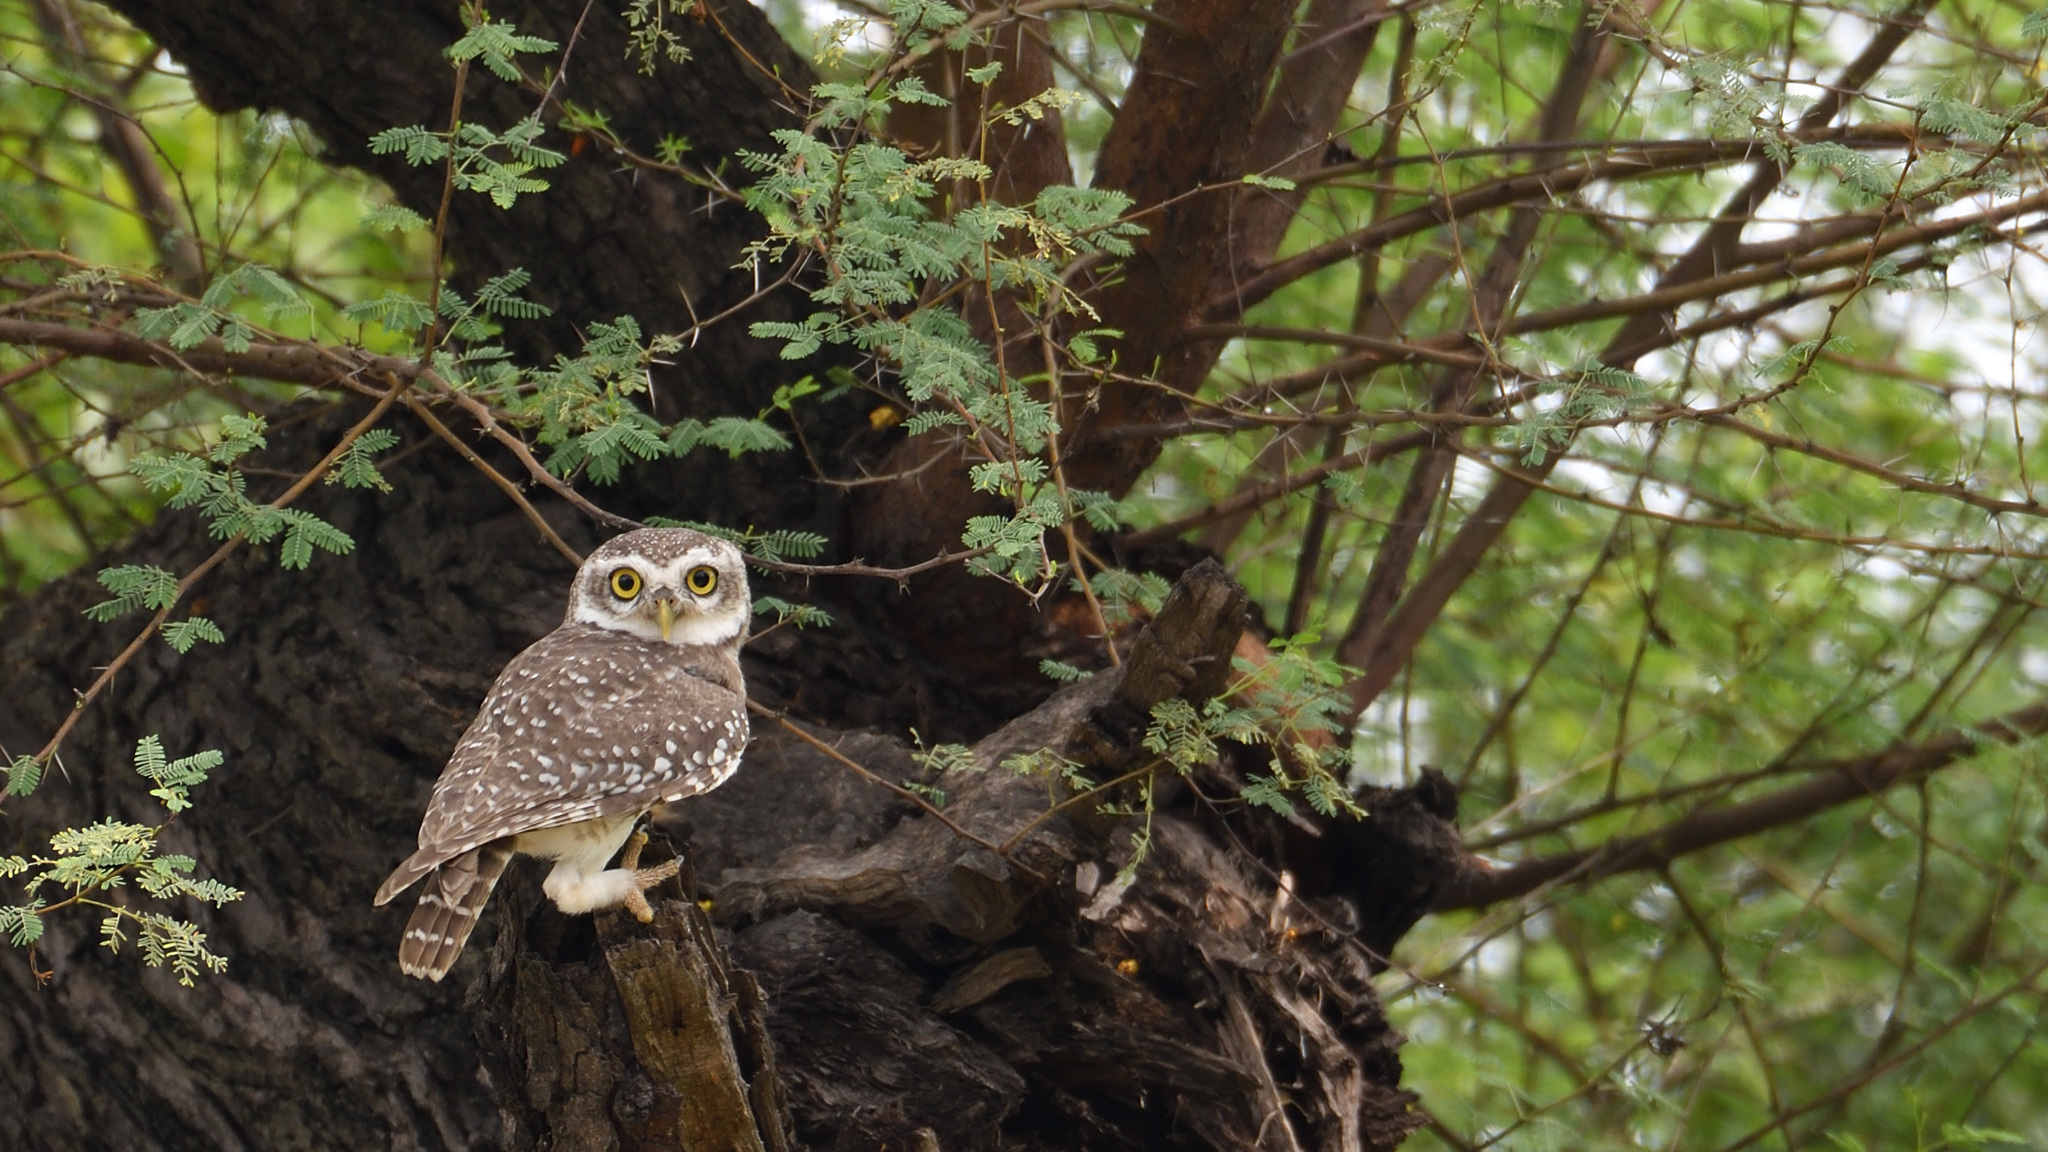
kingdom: Animalia
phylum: Chordata
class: Aves
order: Strigiformes
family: Strigidae
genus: Athene
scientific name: Athene brama
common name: Spotted owlet
